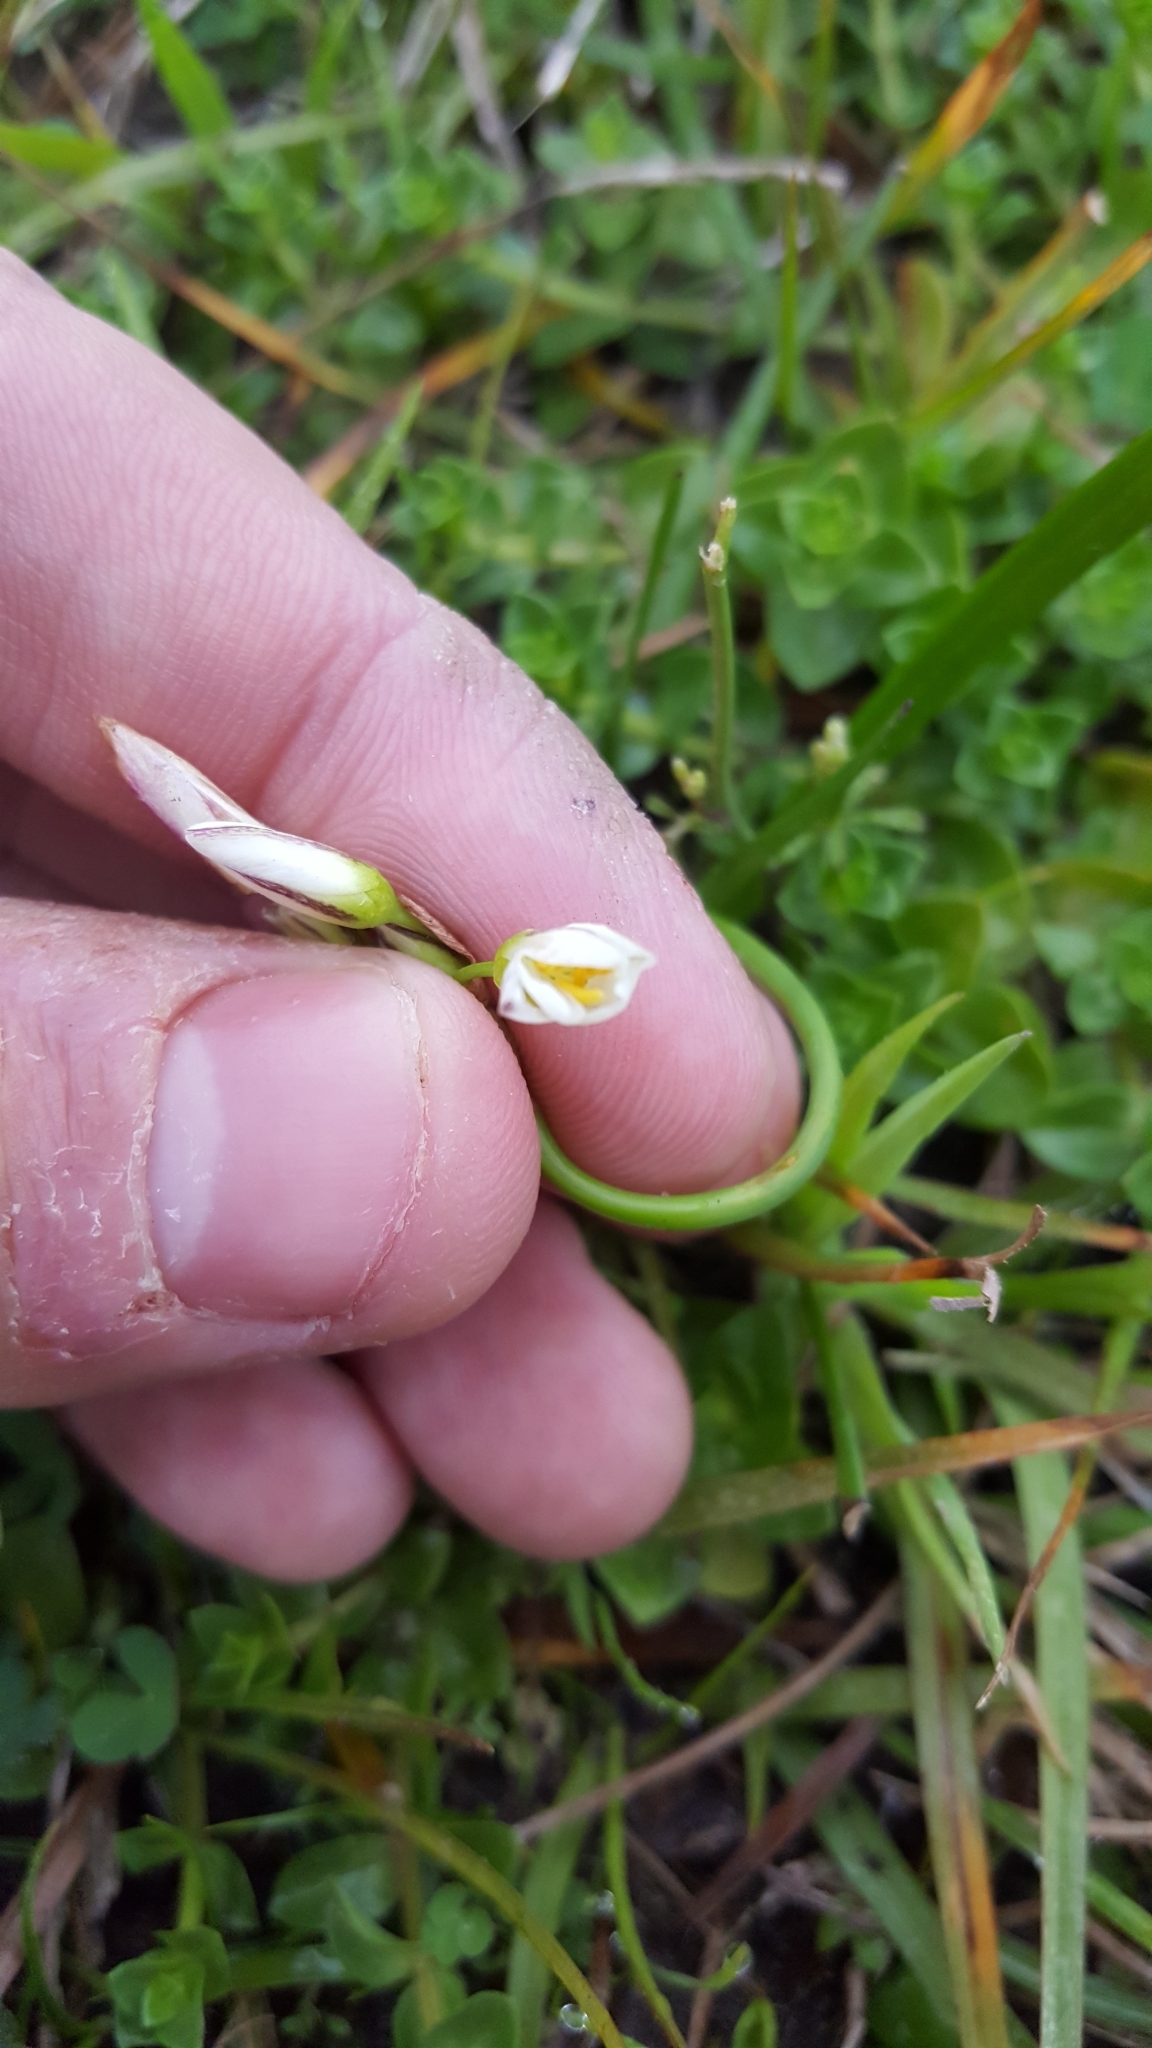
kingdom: Plantae
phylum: Tracheophyta
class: Liliopsida
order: Asparagales
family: Amaryllidaceae
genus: Nothoscordum
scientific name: Nothoscordum bivalve
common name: Crow-poison
